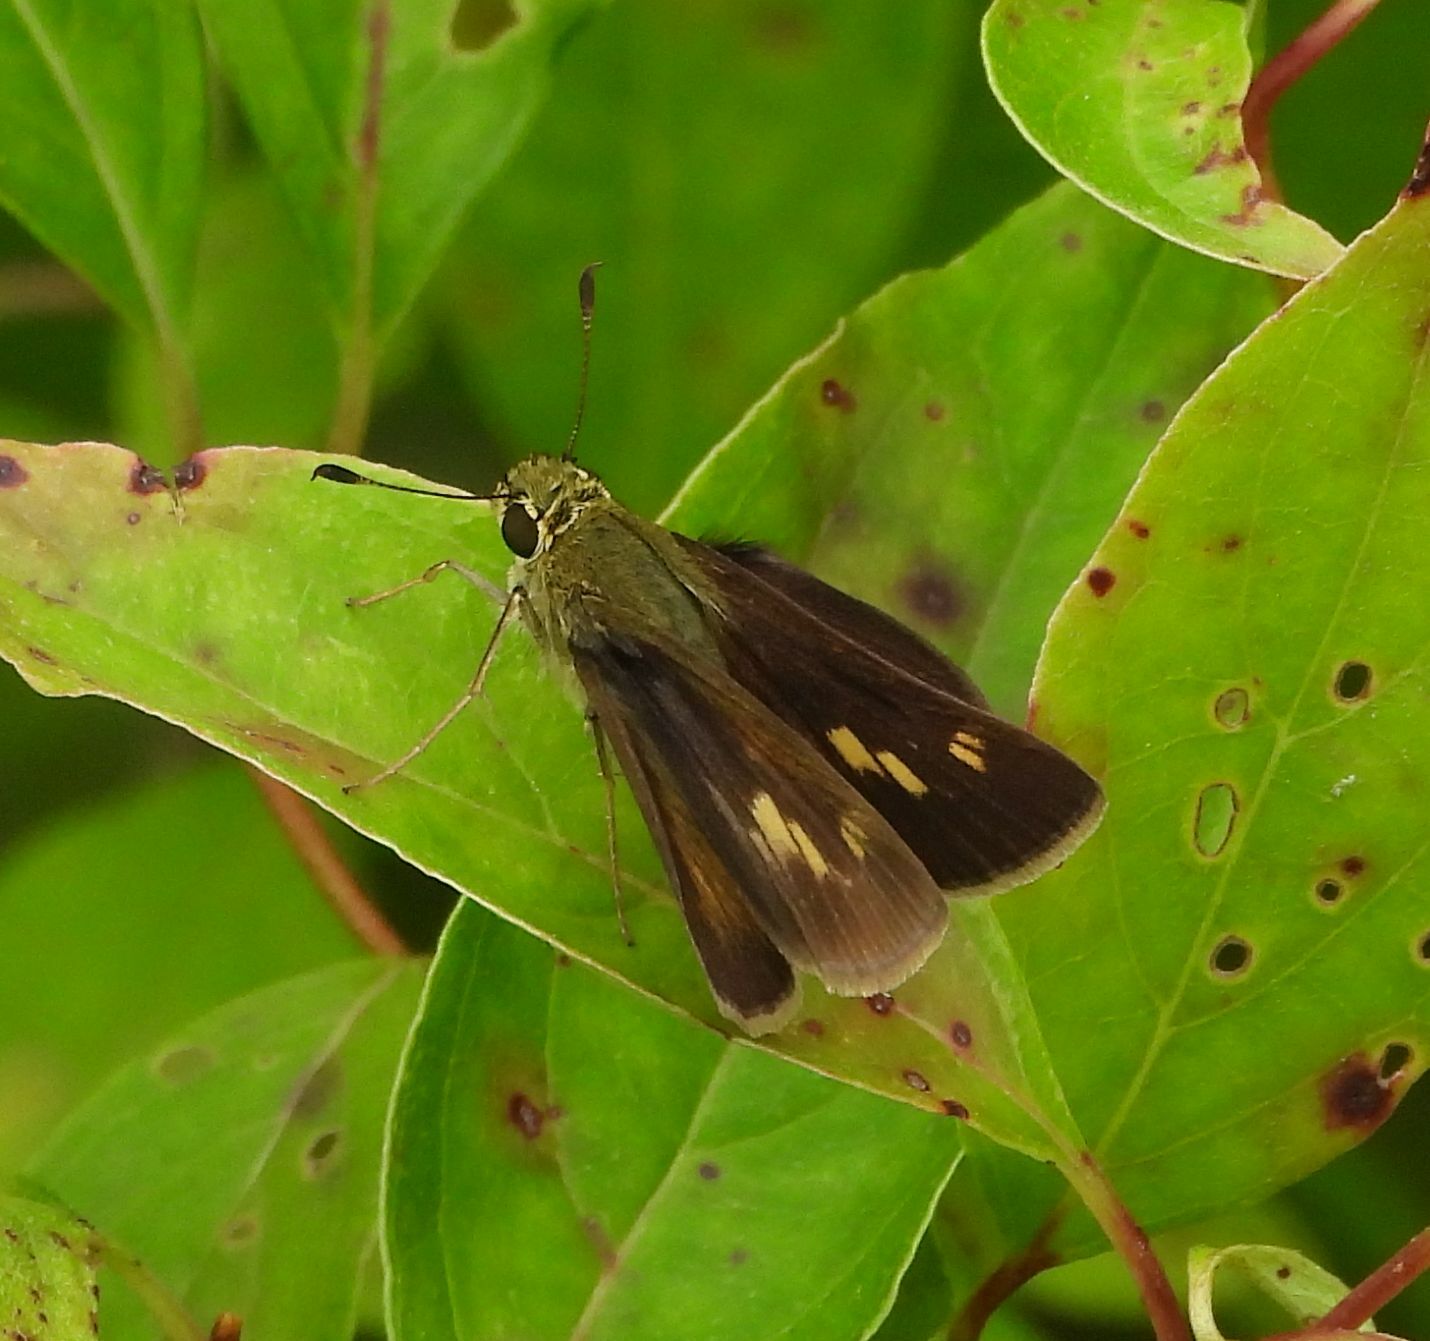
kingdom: Animalia
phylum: Arthropoda
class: Insecta
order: Lepidoptera
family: Hesperiidae
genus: Polites
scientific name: Polites egeremet
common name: Northern broken-dash
